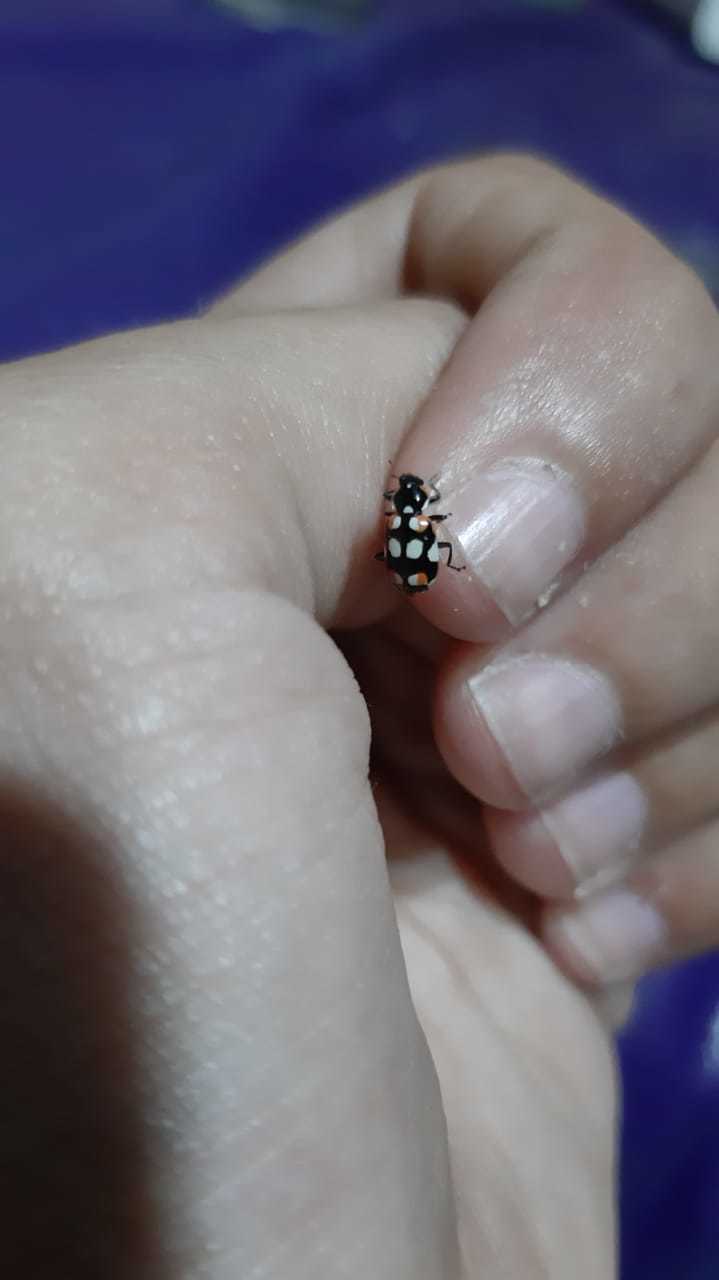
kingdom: Animalia
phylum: Arthropoda
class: Insecta
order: Coleoptera
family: Coccinellidae
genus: Eriopis
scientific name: Eriopis connexa
